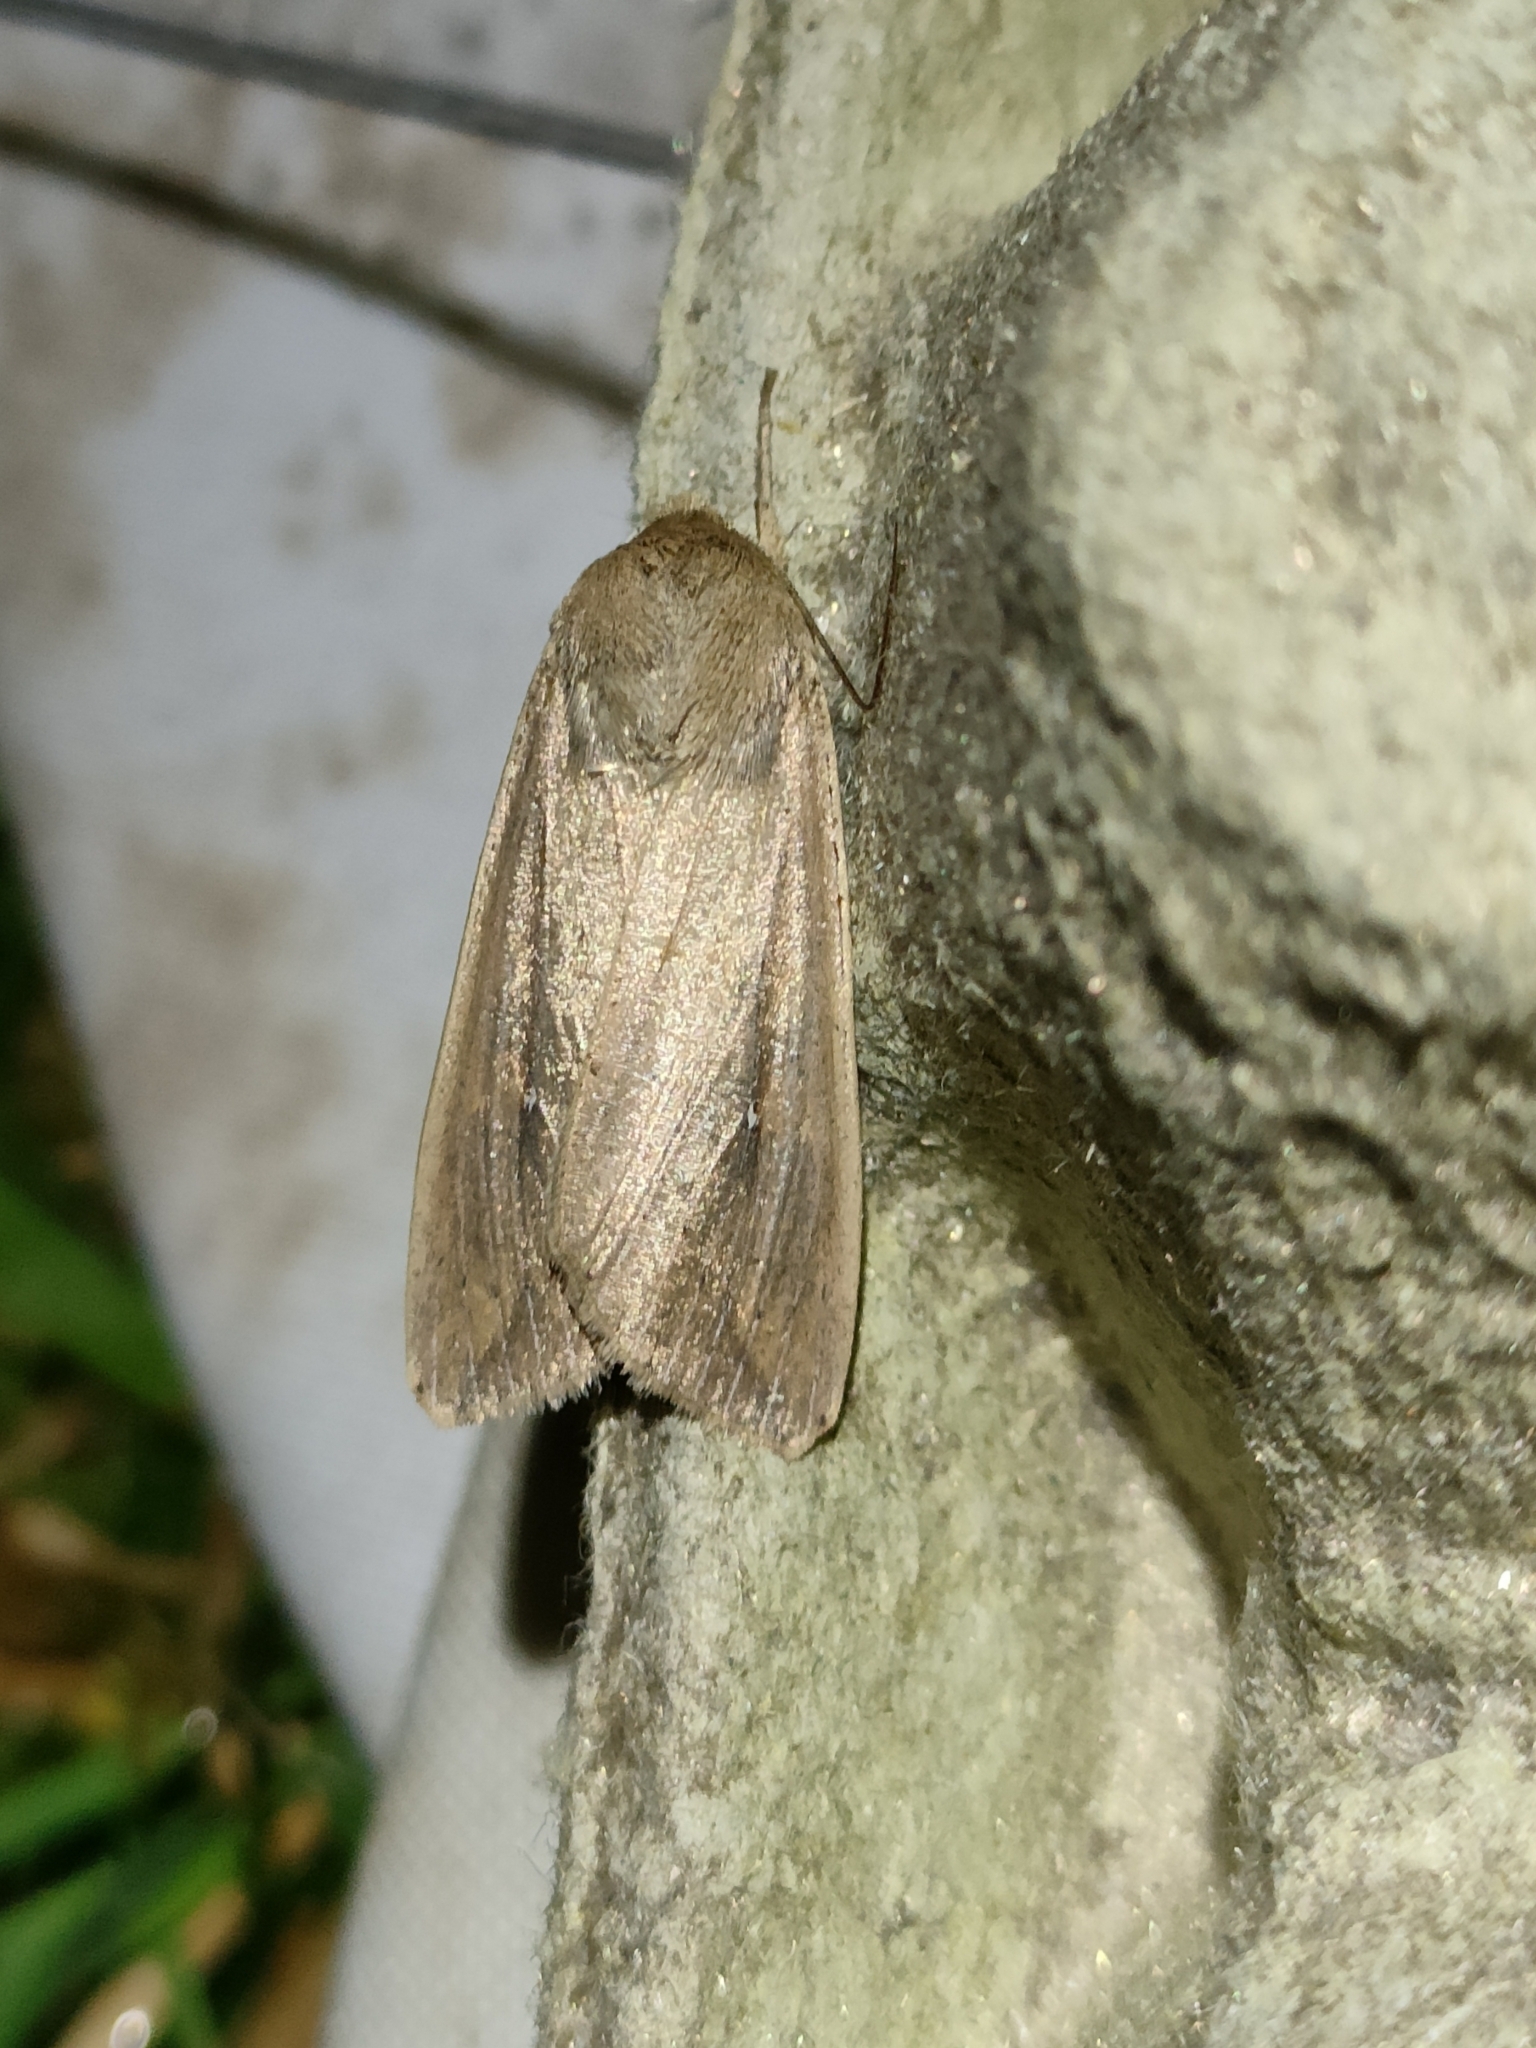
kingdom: Animalia
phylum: Arthropoda
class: Insecta
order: Lepidoptera
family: Noctuidae
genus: Mythimna
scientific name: Mythimna unipuncta
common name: White-speck
